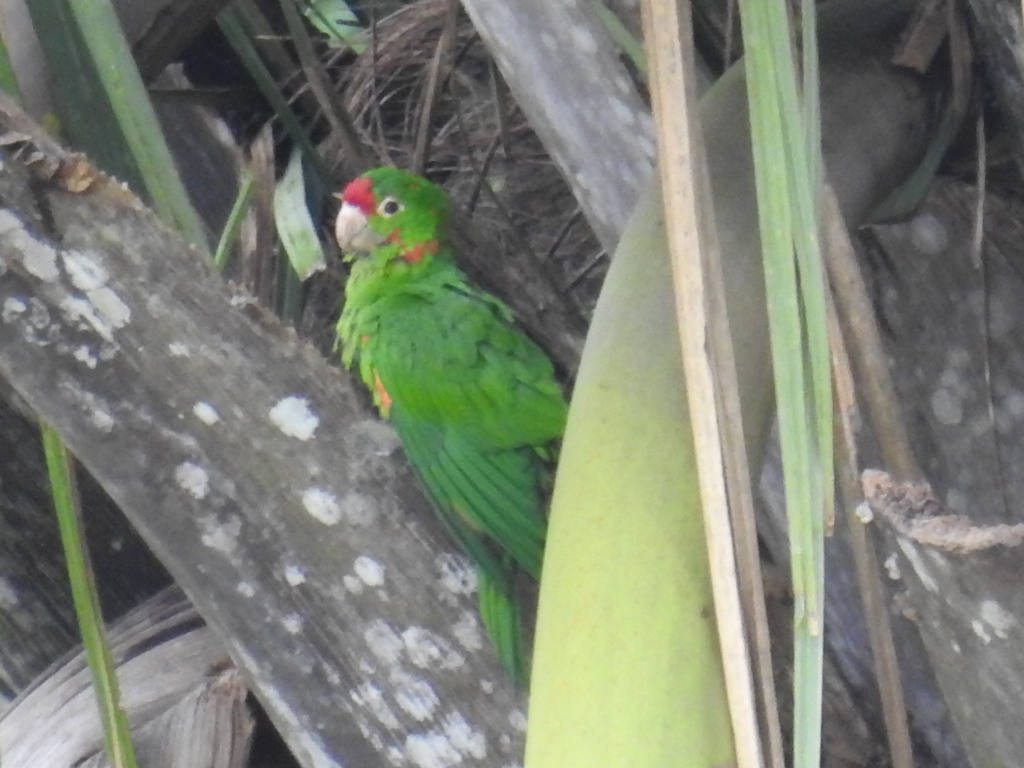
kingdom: Animalia
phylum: Chordata
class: Aves
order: Psittaciformes
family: Psittacidae
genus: Aratinga
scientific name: Aratinga finschi
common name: Crimson-fronted parakeet
